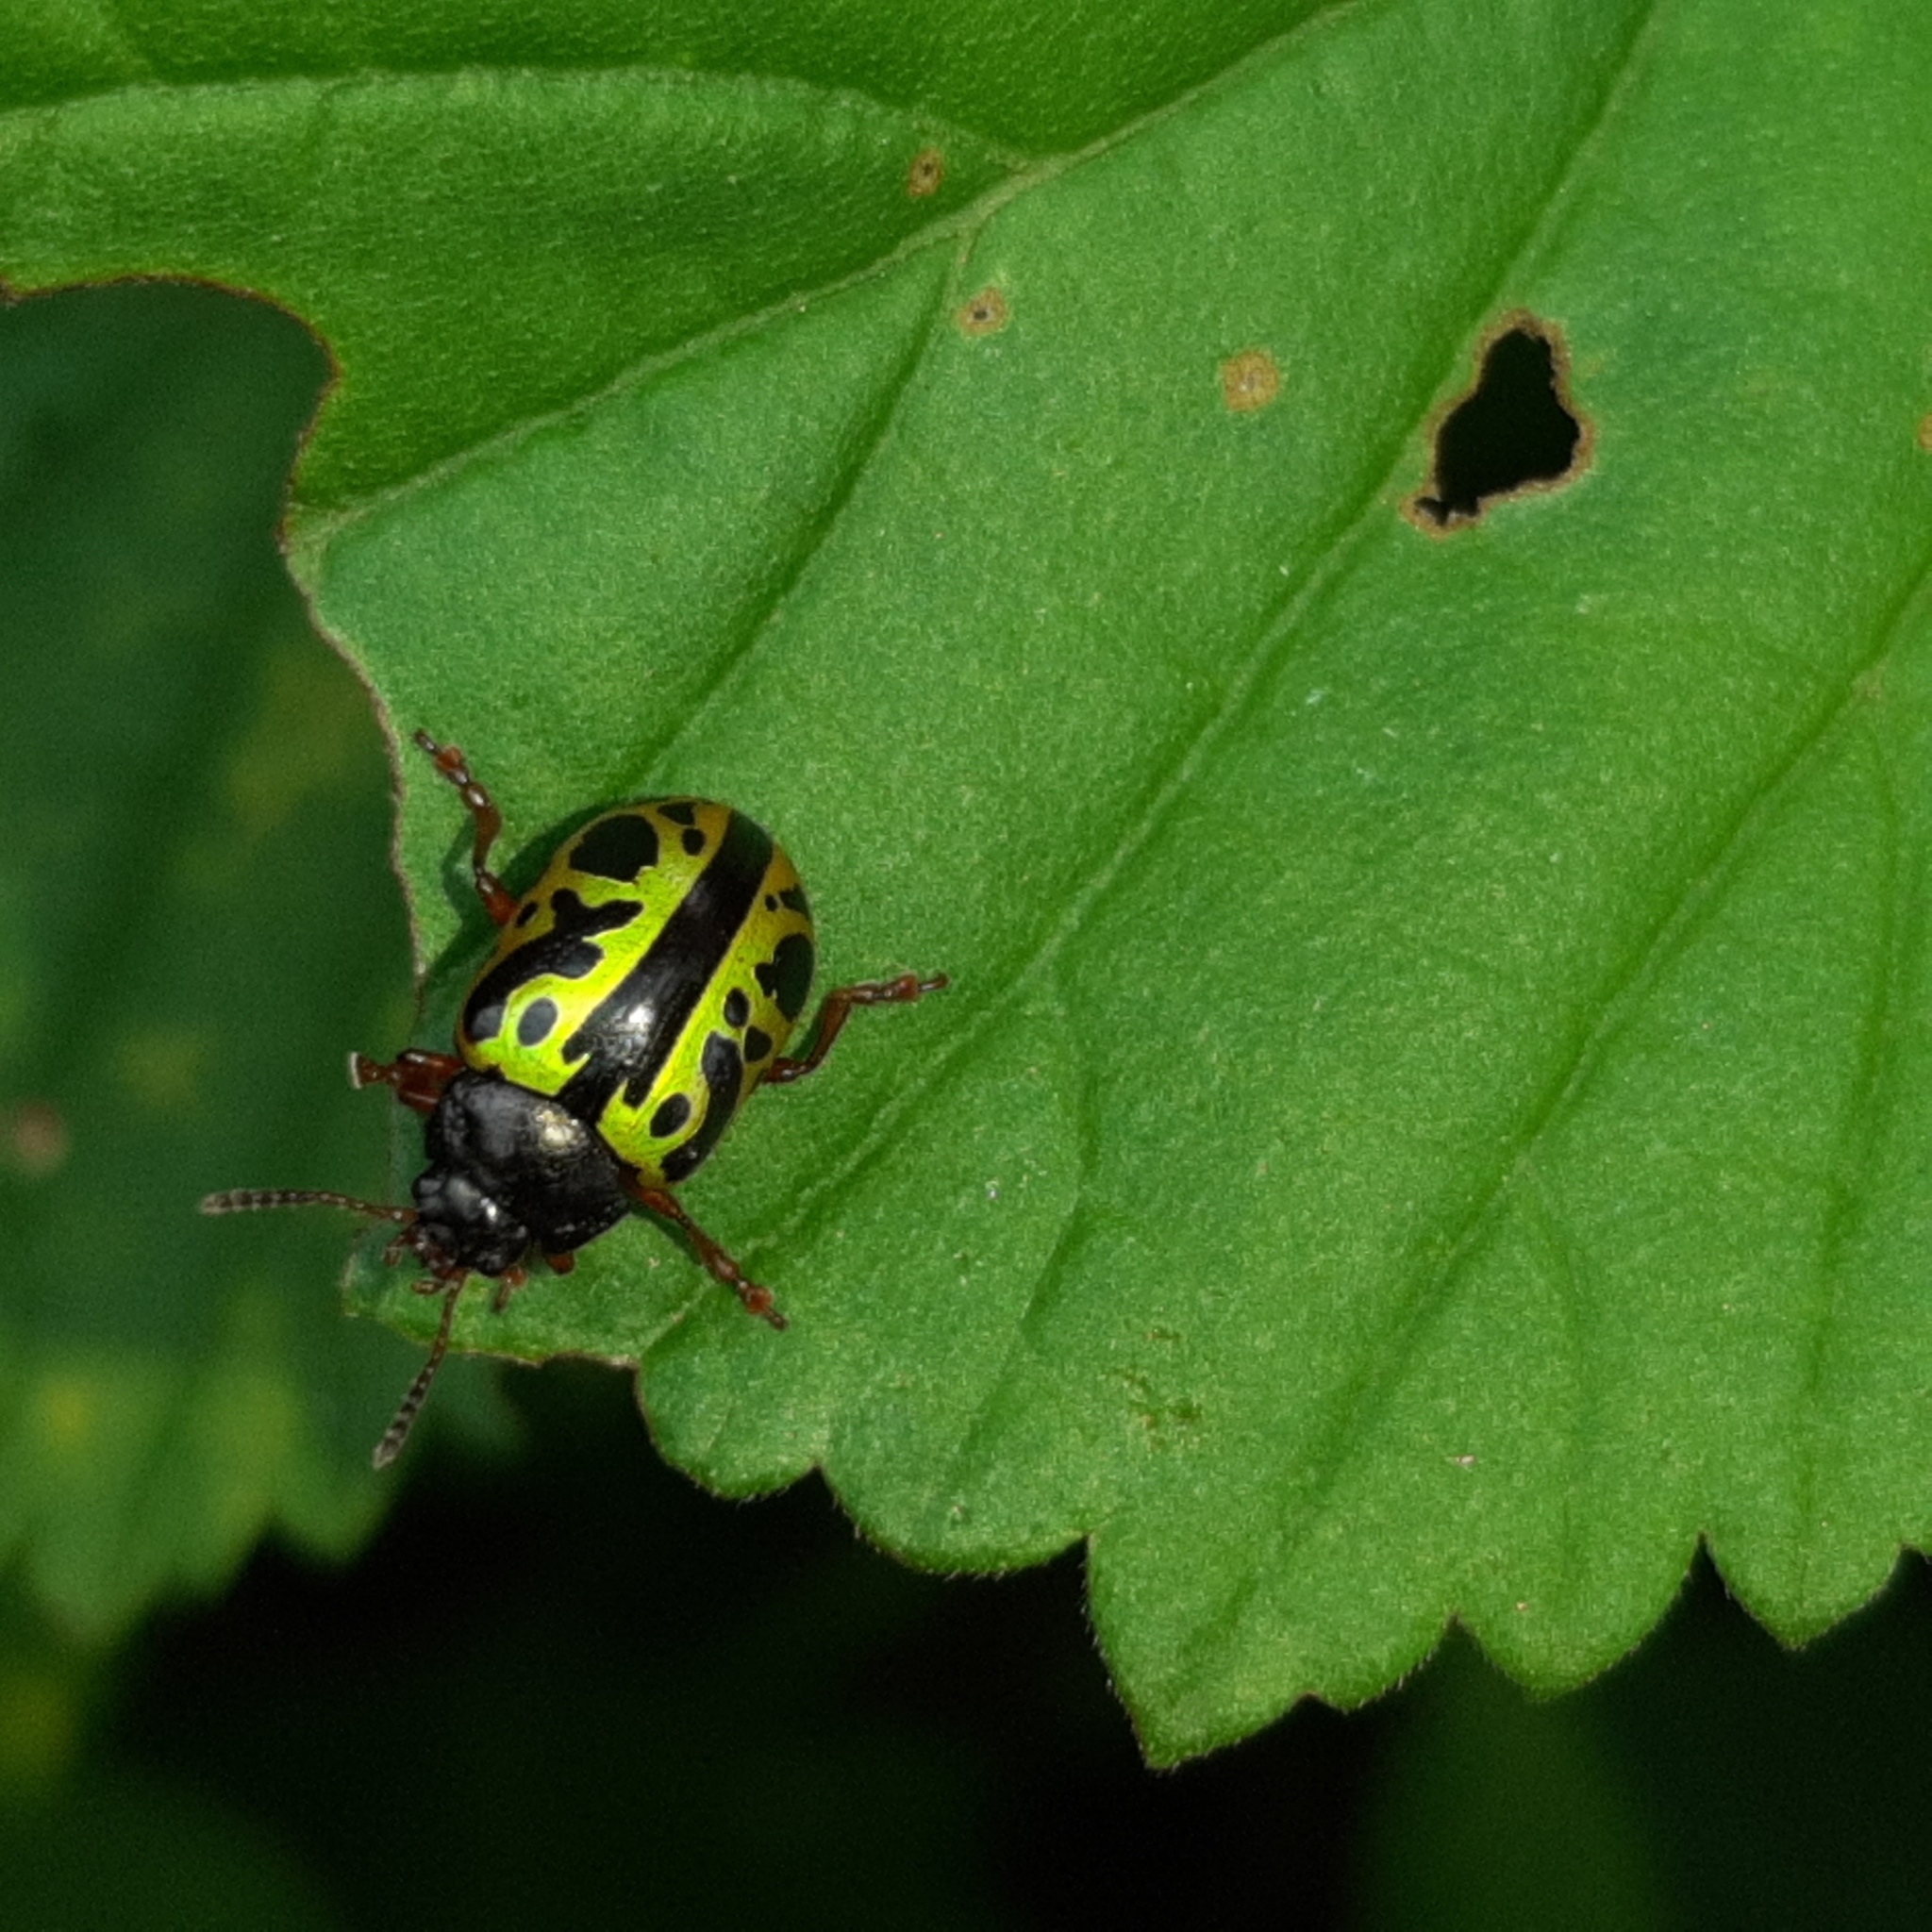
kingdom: Animalia
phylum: Arthropoda
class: Insecta
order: Coleoptera
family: Chrysomelidae
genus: Calligrapha
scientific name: Calligrapha fulvipes
